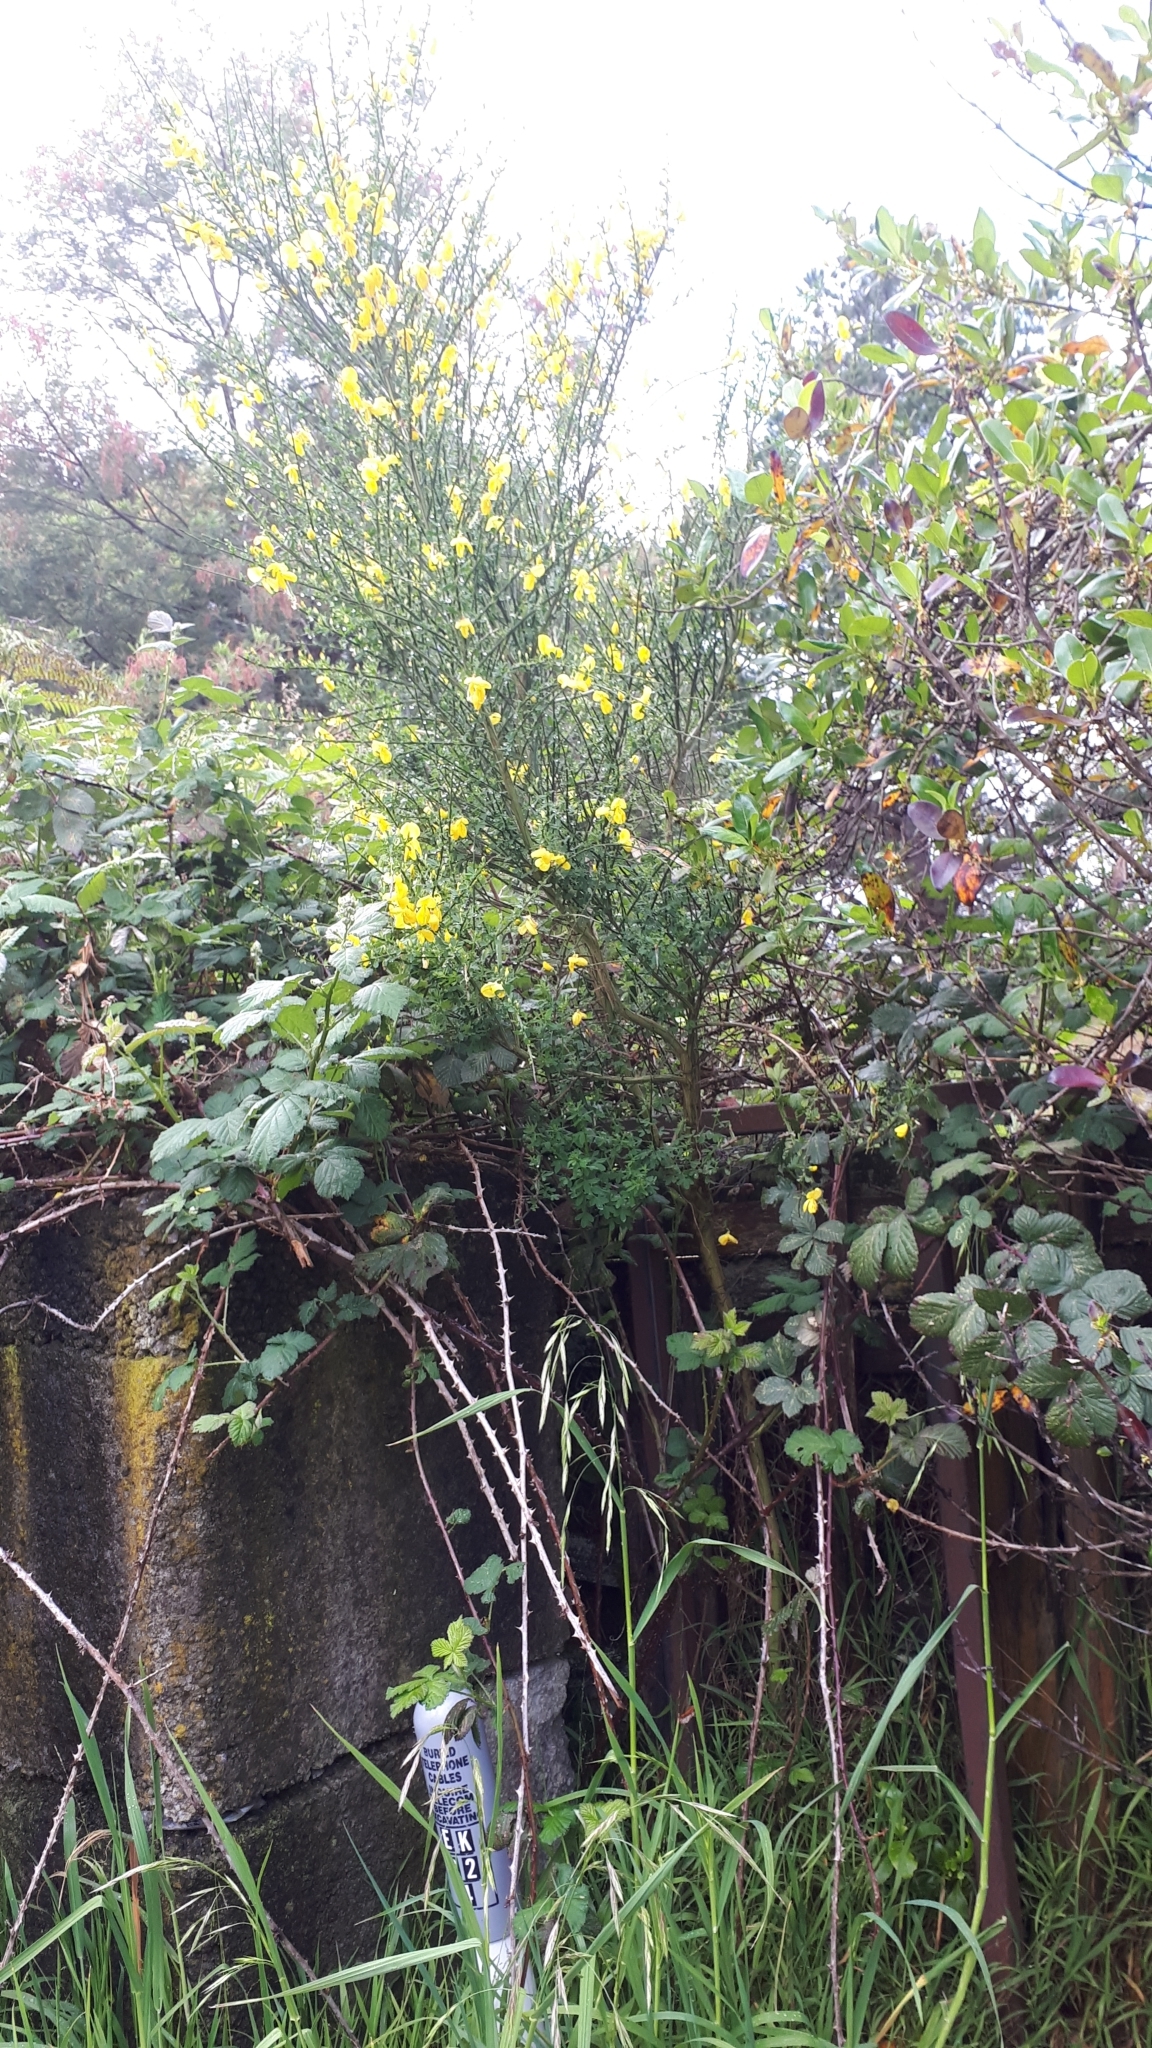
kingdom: Plantae
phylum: Tracheophyta
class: Magnoliopsida
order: Fabales
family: Fabaceae
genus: Cytisus
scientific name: Cytisus scoparius
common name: Scotch broom
